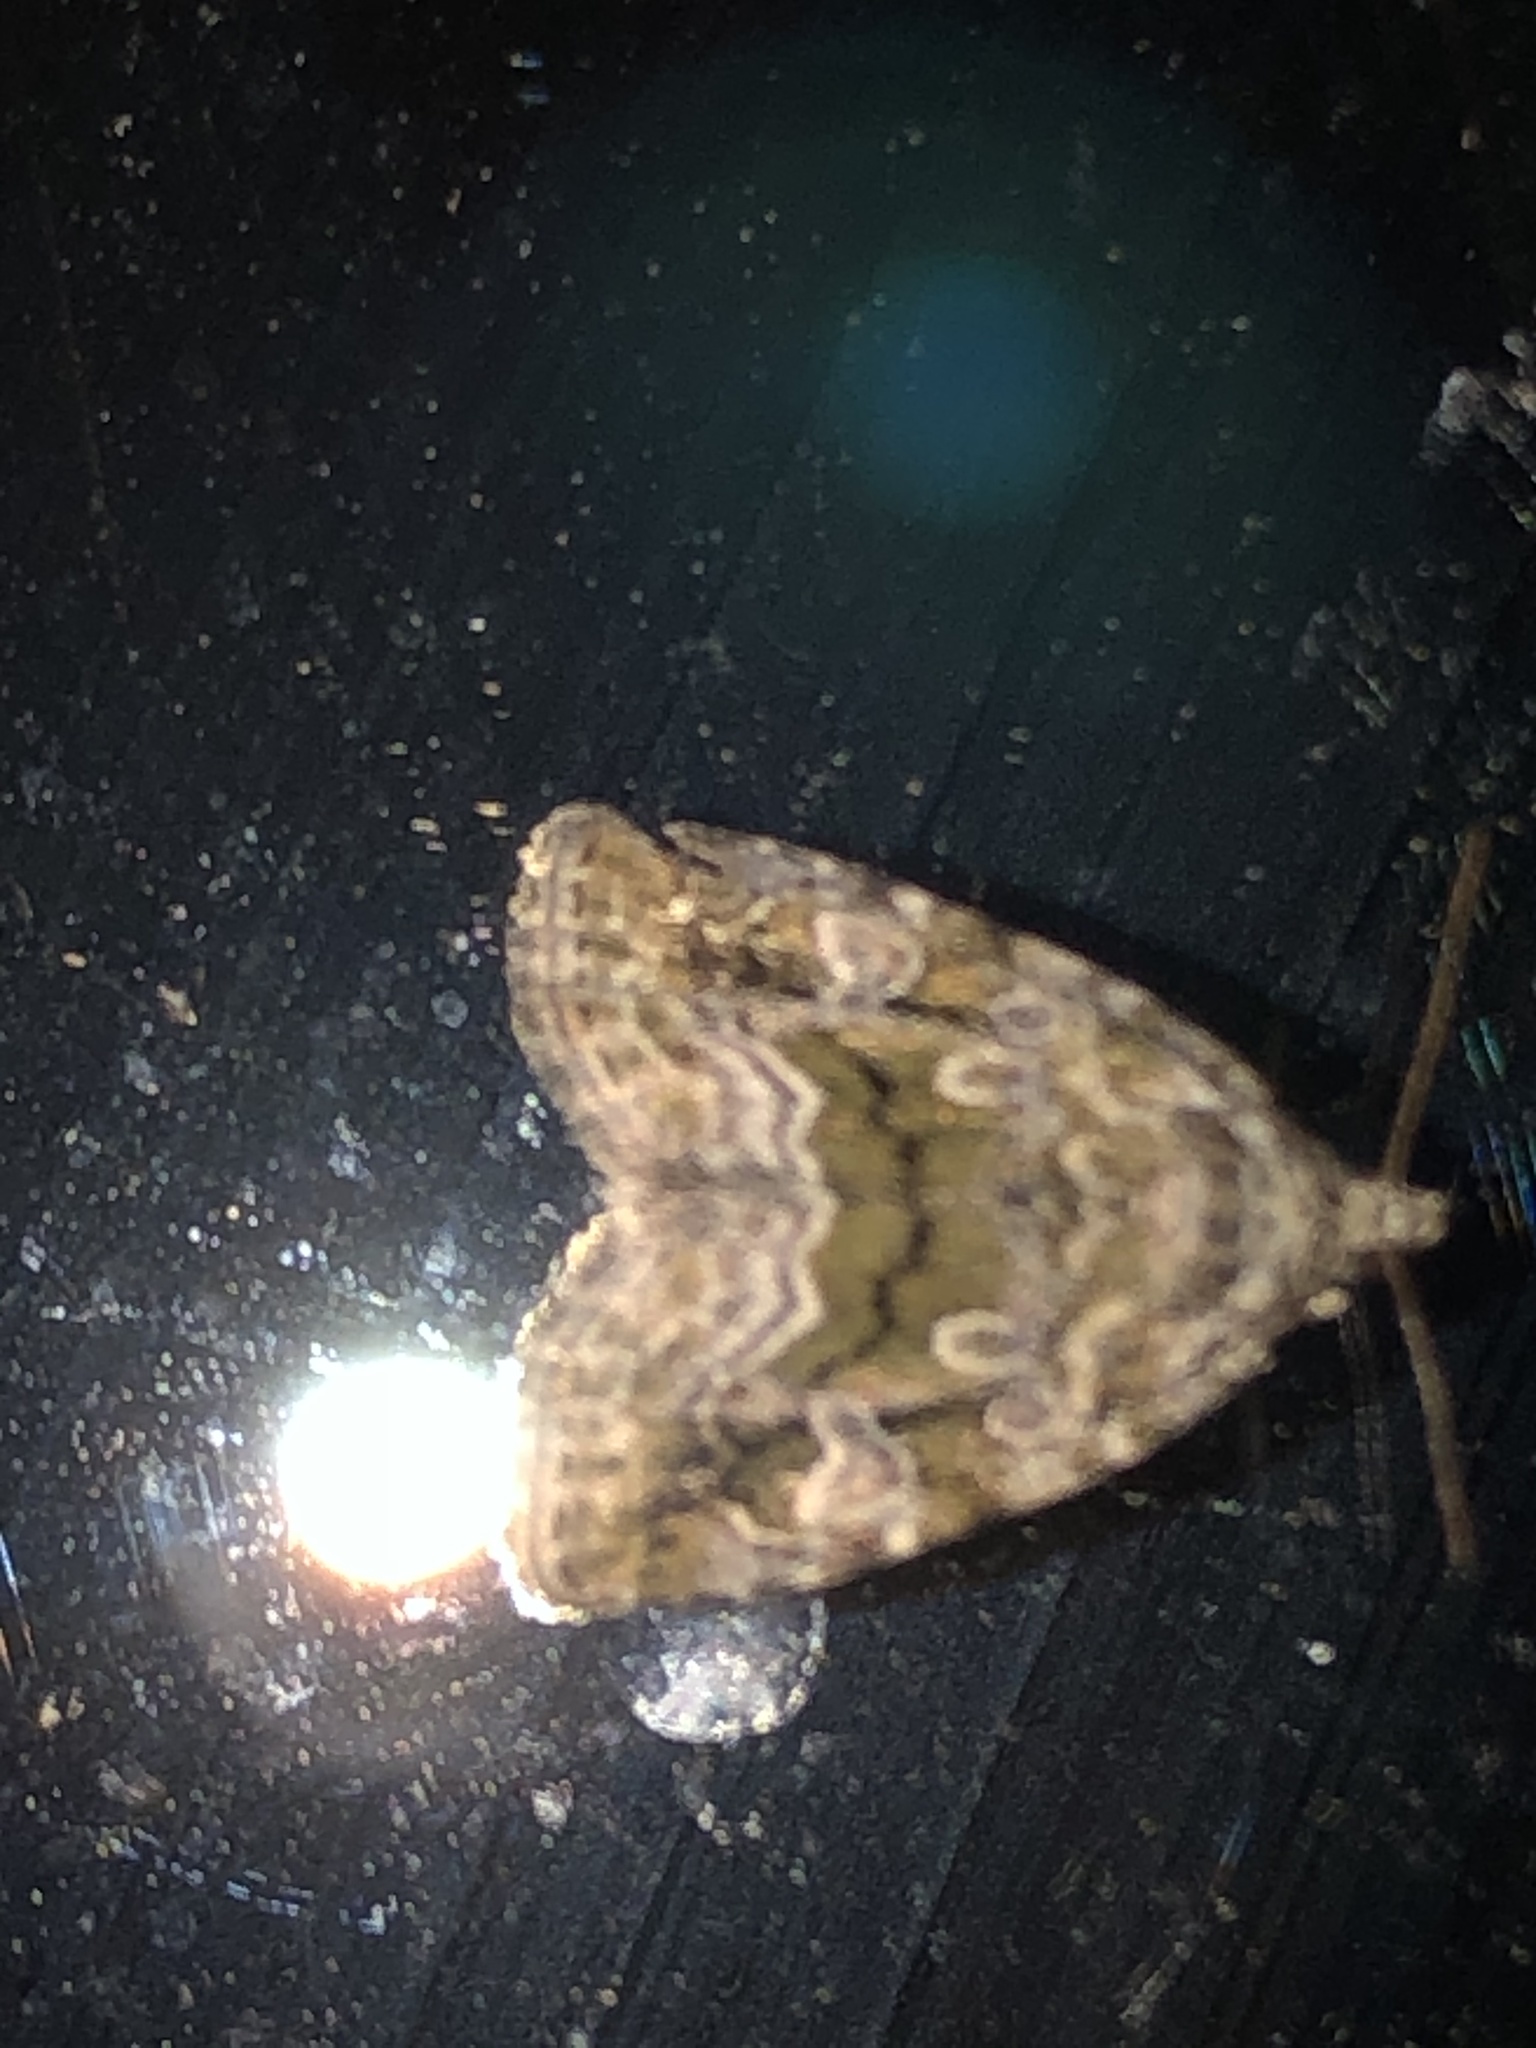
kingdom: Animalia
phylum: Arthropoda
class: Insecta
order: Lepidoptera
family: Noctuidae
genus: Protodeltote
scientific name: Protodeltote muscosula
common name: Large mossy glyph
